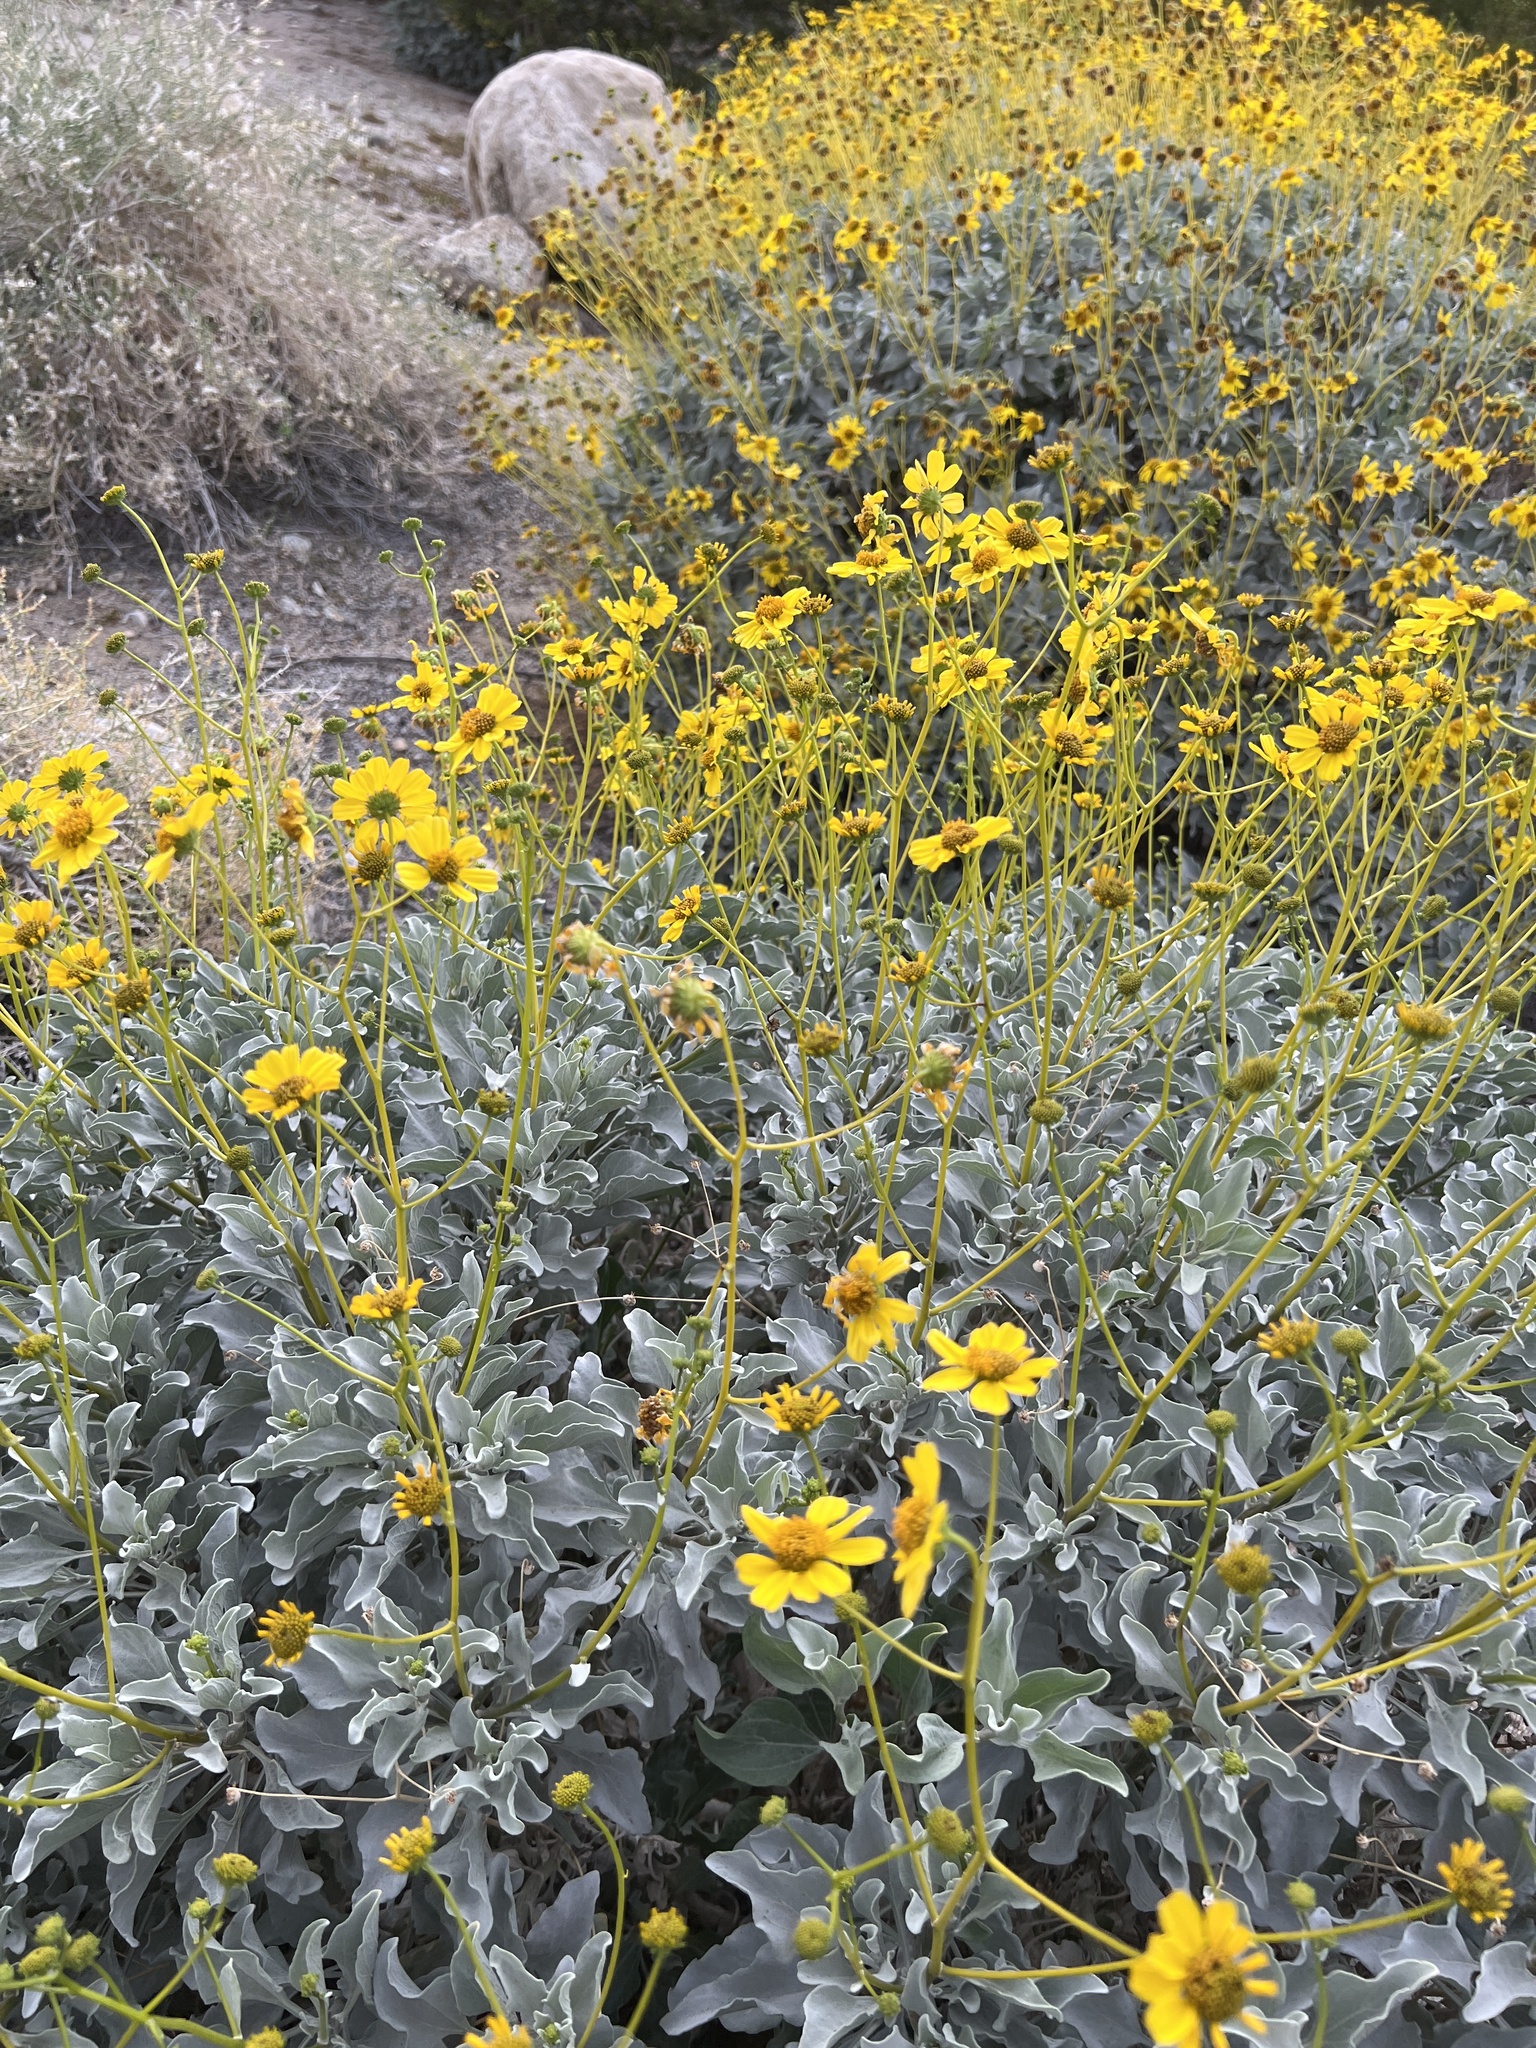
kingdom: Plantae
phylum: Tracheophyta
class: Magnoliopsida
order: Asterales
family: Asteraceae
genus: Encelia
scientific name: Encelia farinosa
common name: Brittlebush
